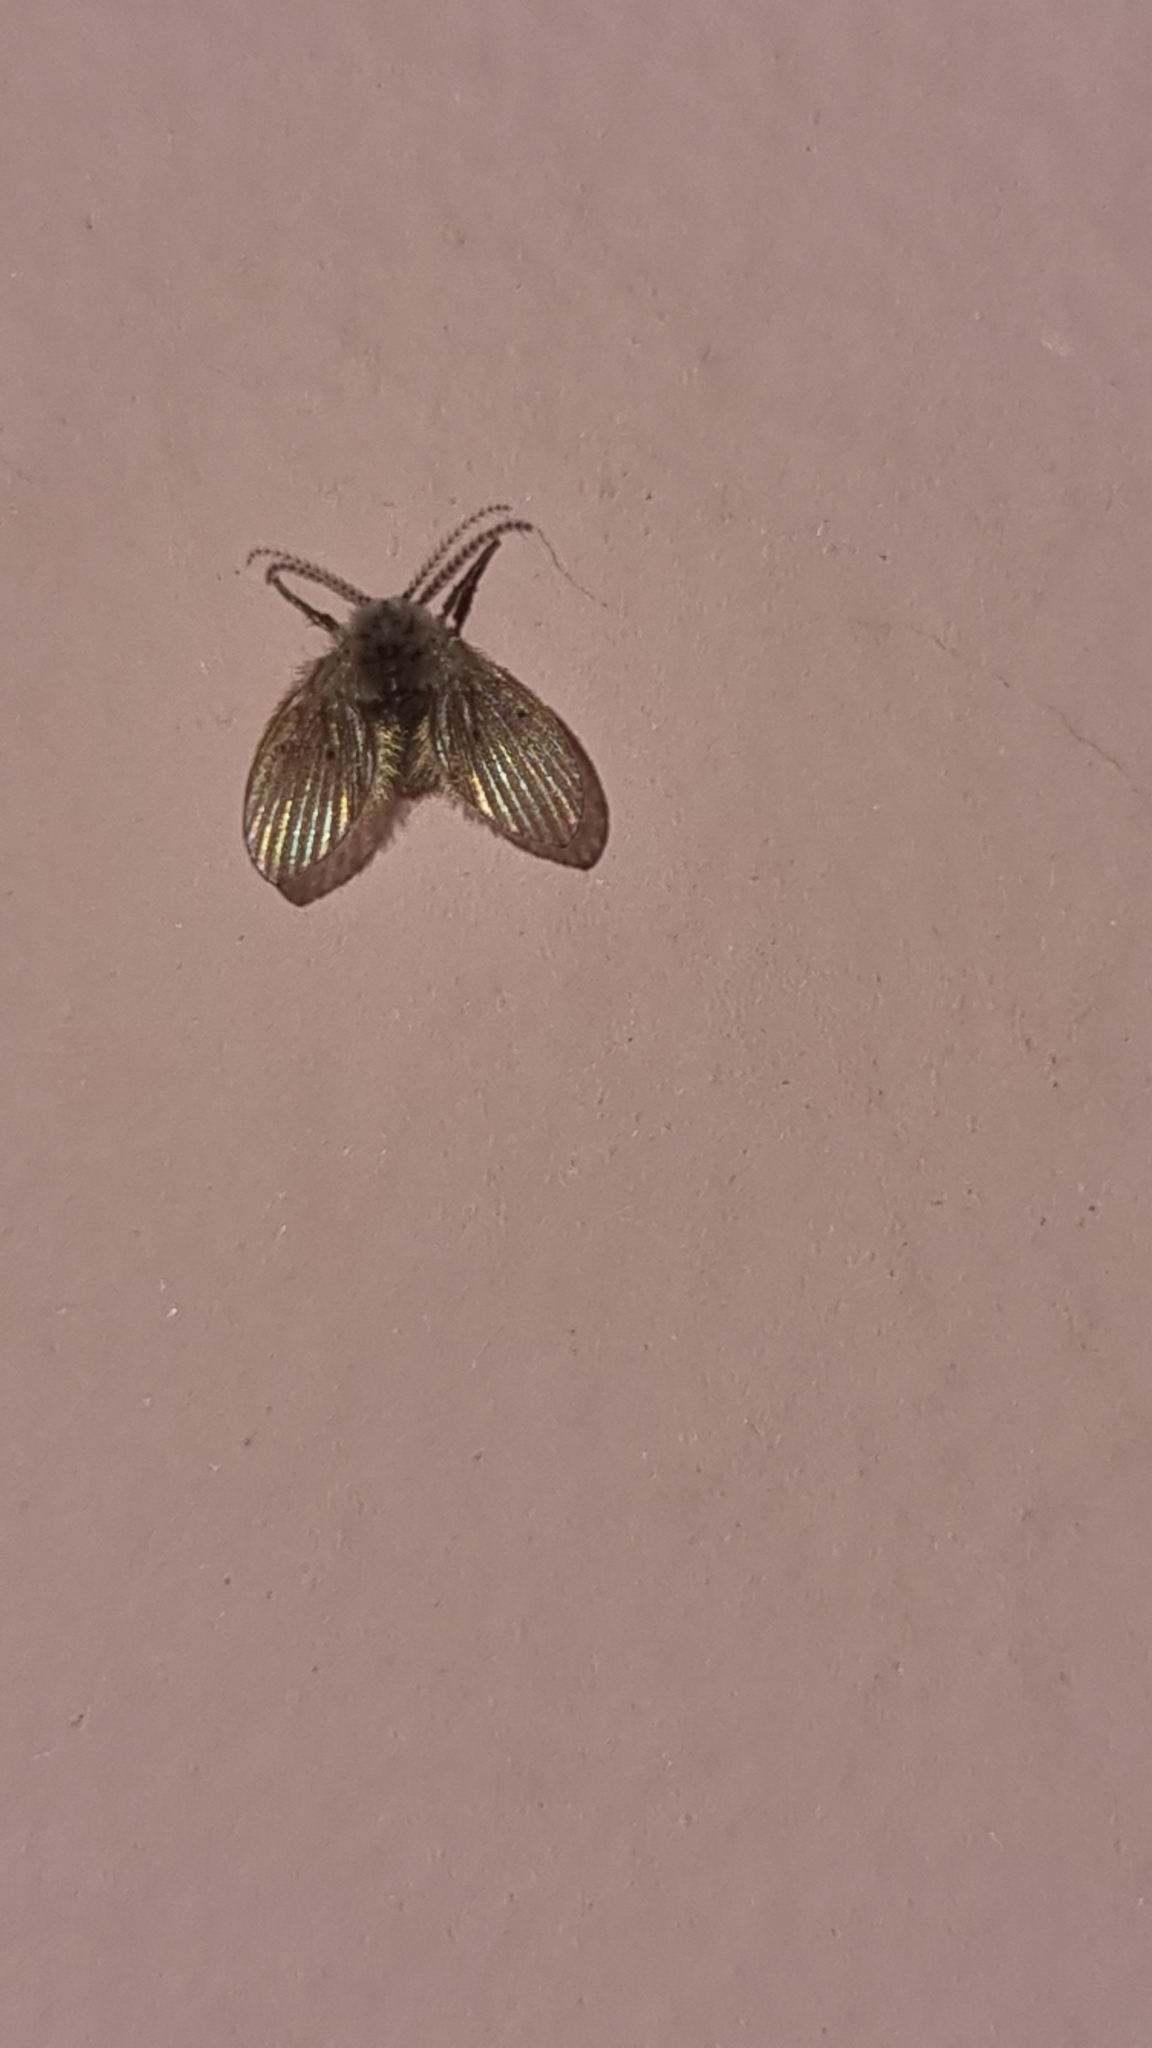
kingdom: Animalia
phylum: Arthropoda
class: Insecta
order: Diptera
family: Psychodidae
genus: Clogmia
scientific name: Clogmia albipunctatus
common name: White-spotted moth fly
